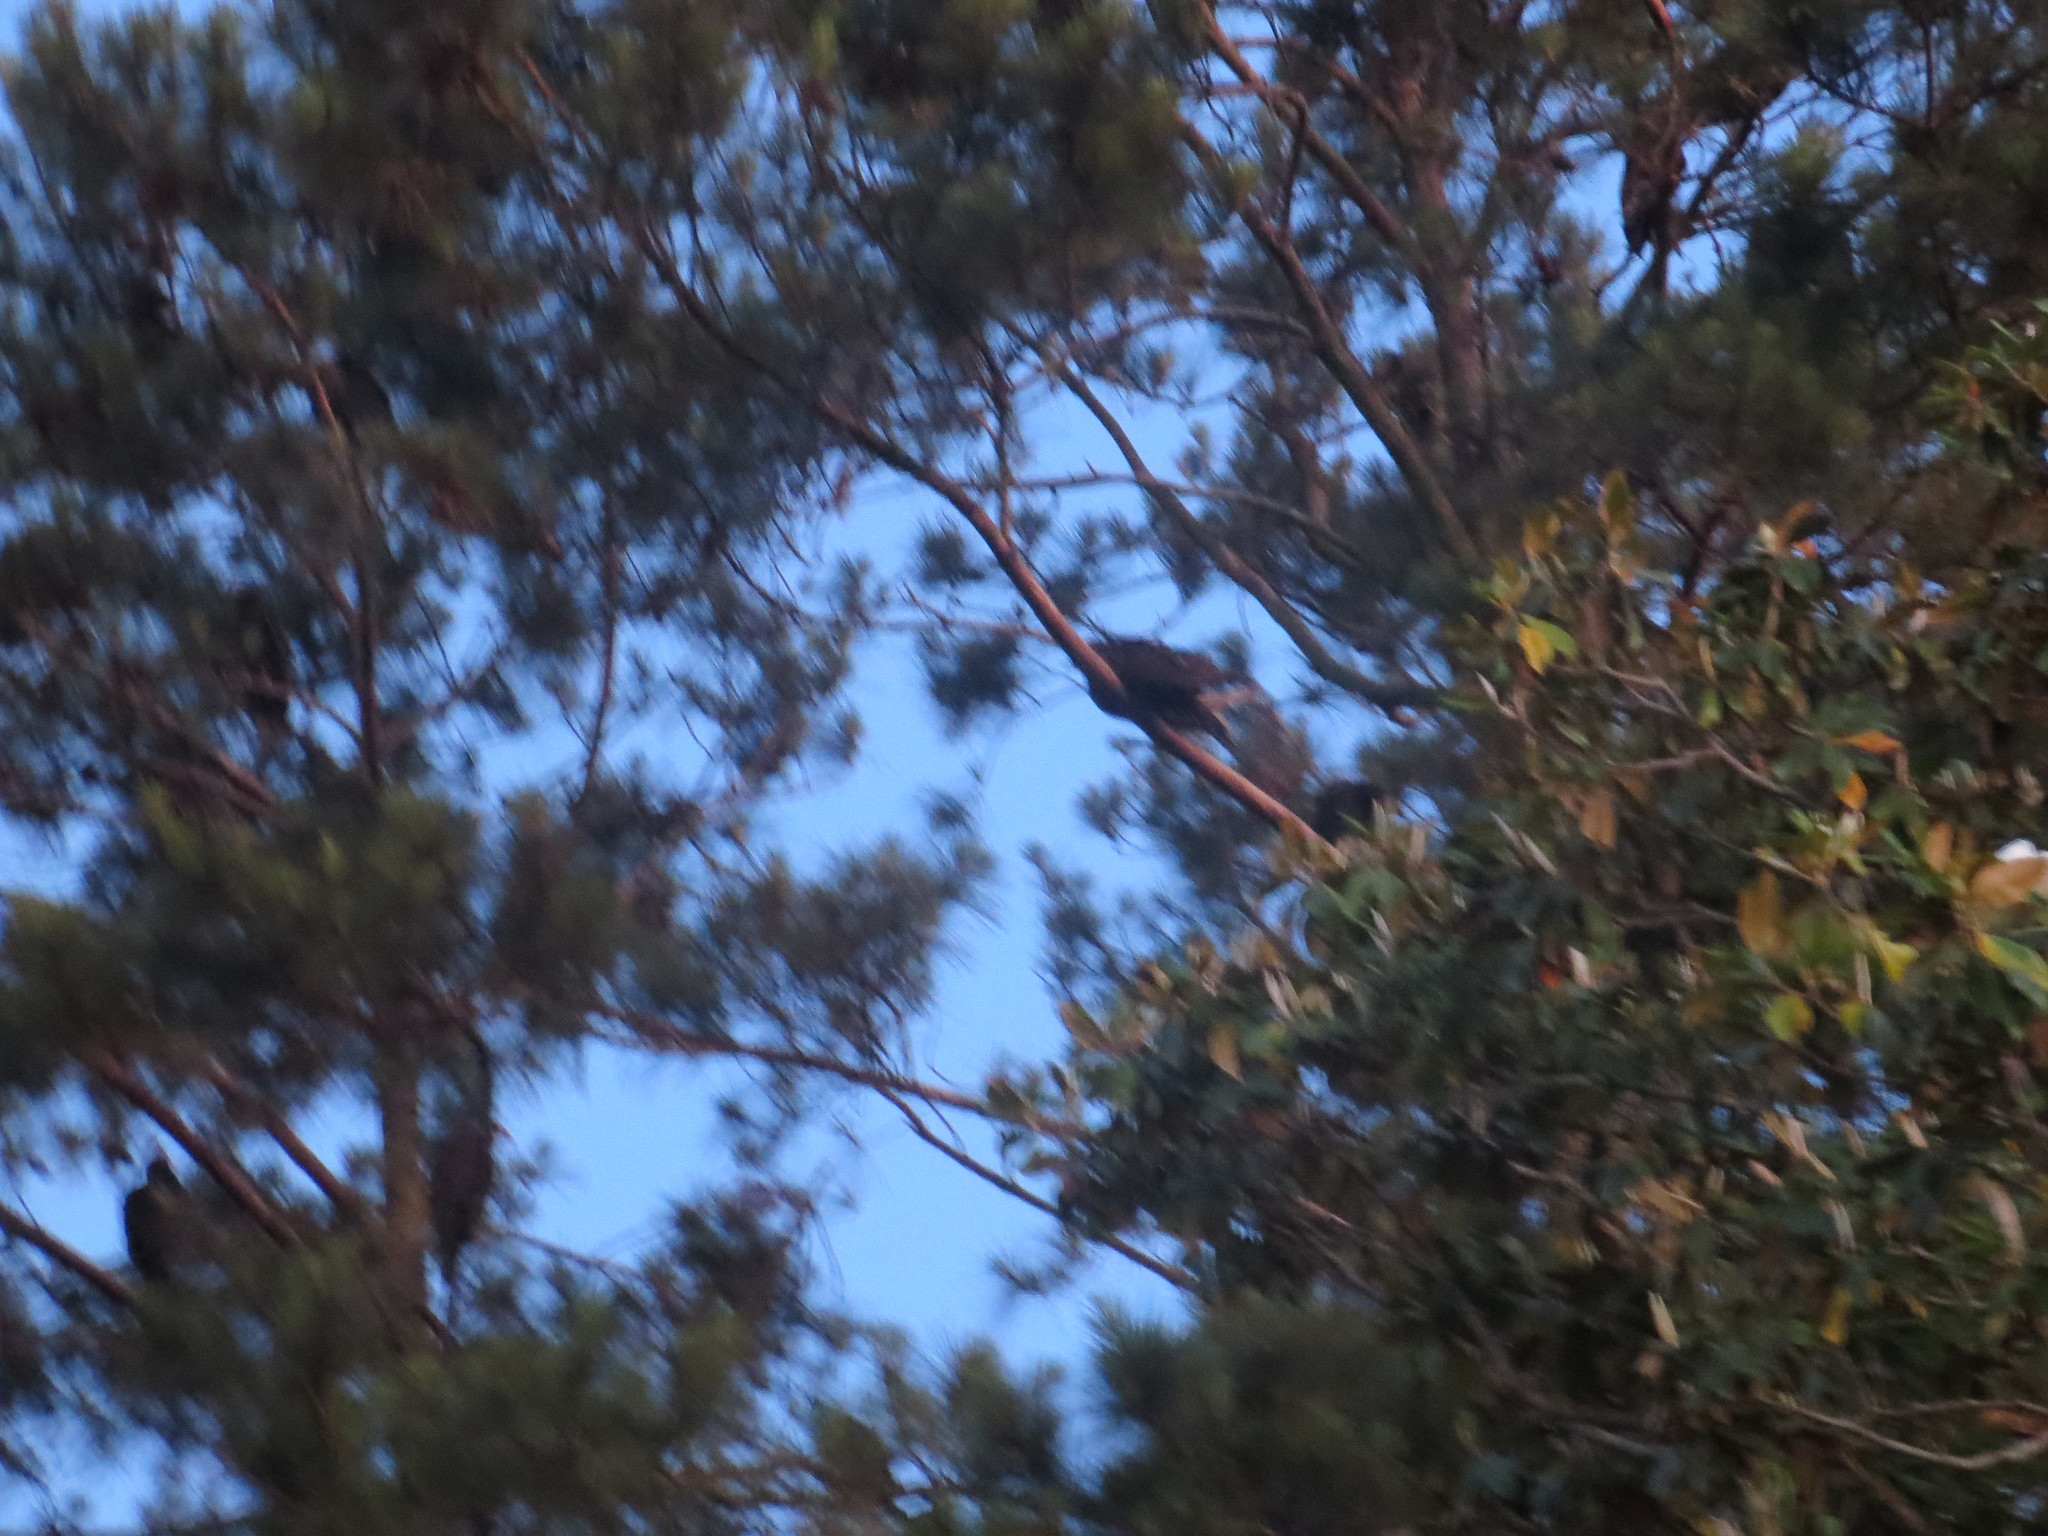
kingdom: Animalia
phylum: Chordata
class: Aves
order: Accipitriformes
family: Cathartidae
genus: Coragyps
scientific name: Coragyps atratus
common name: Black vulture
